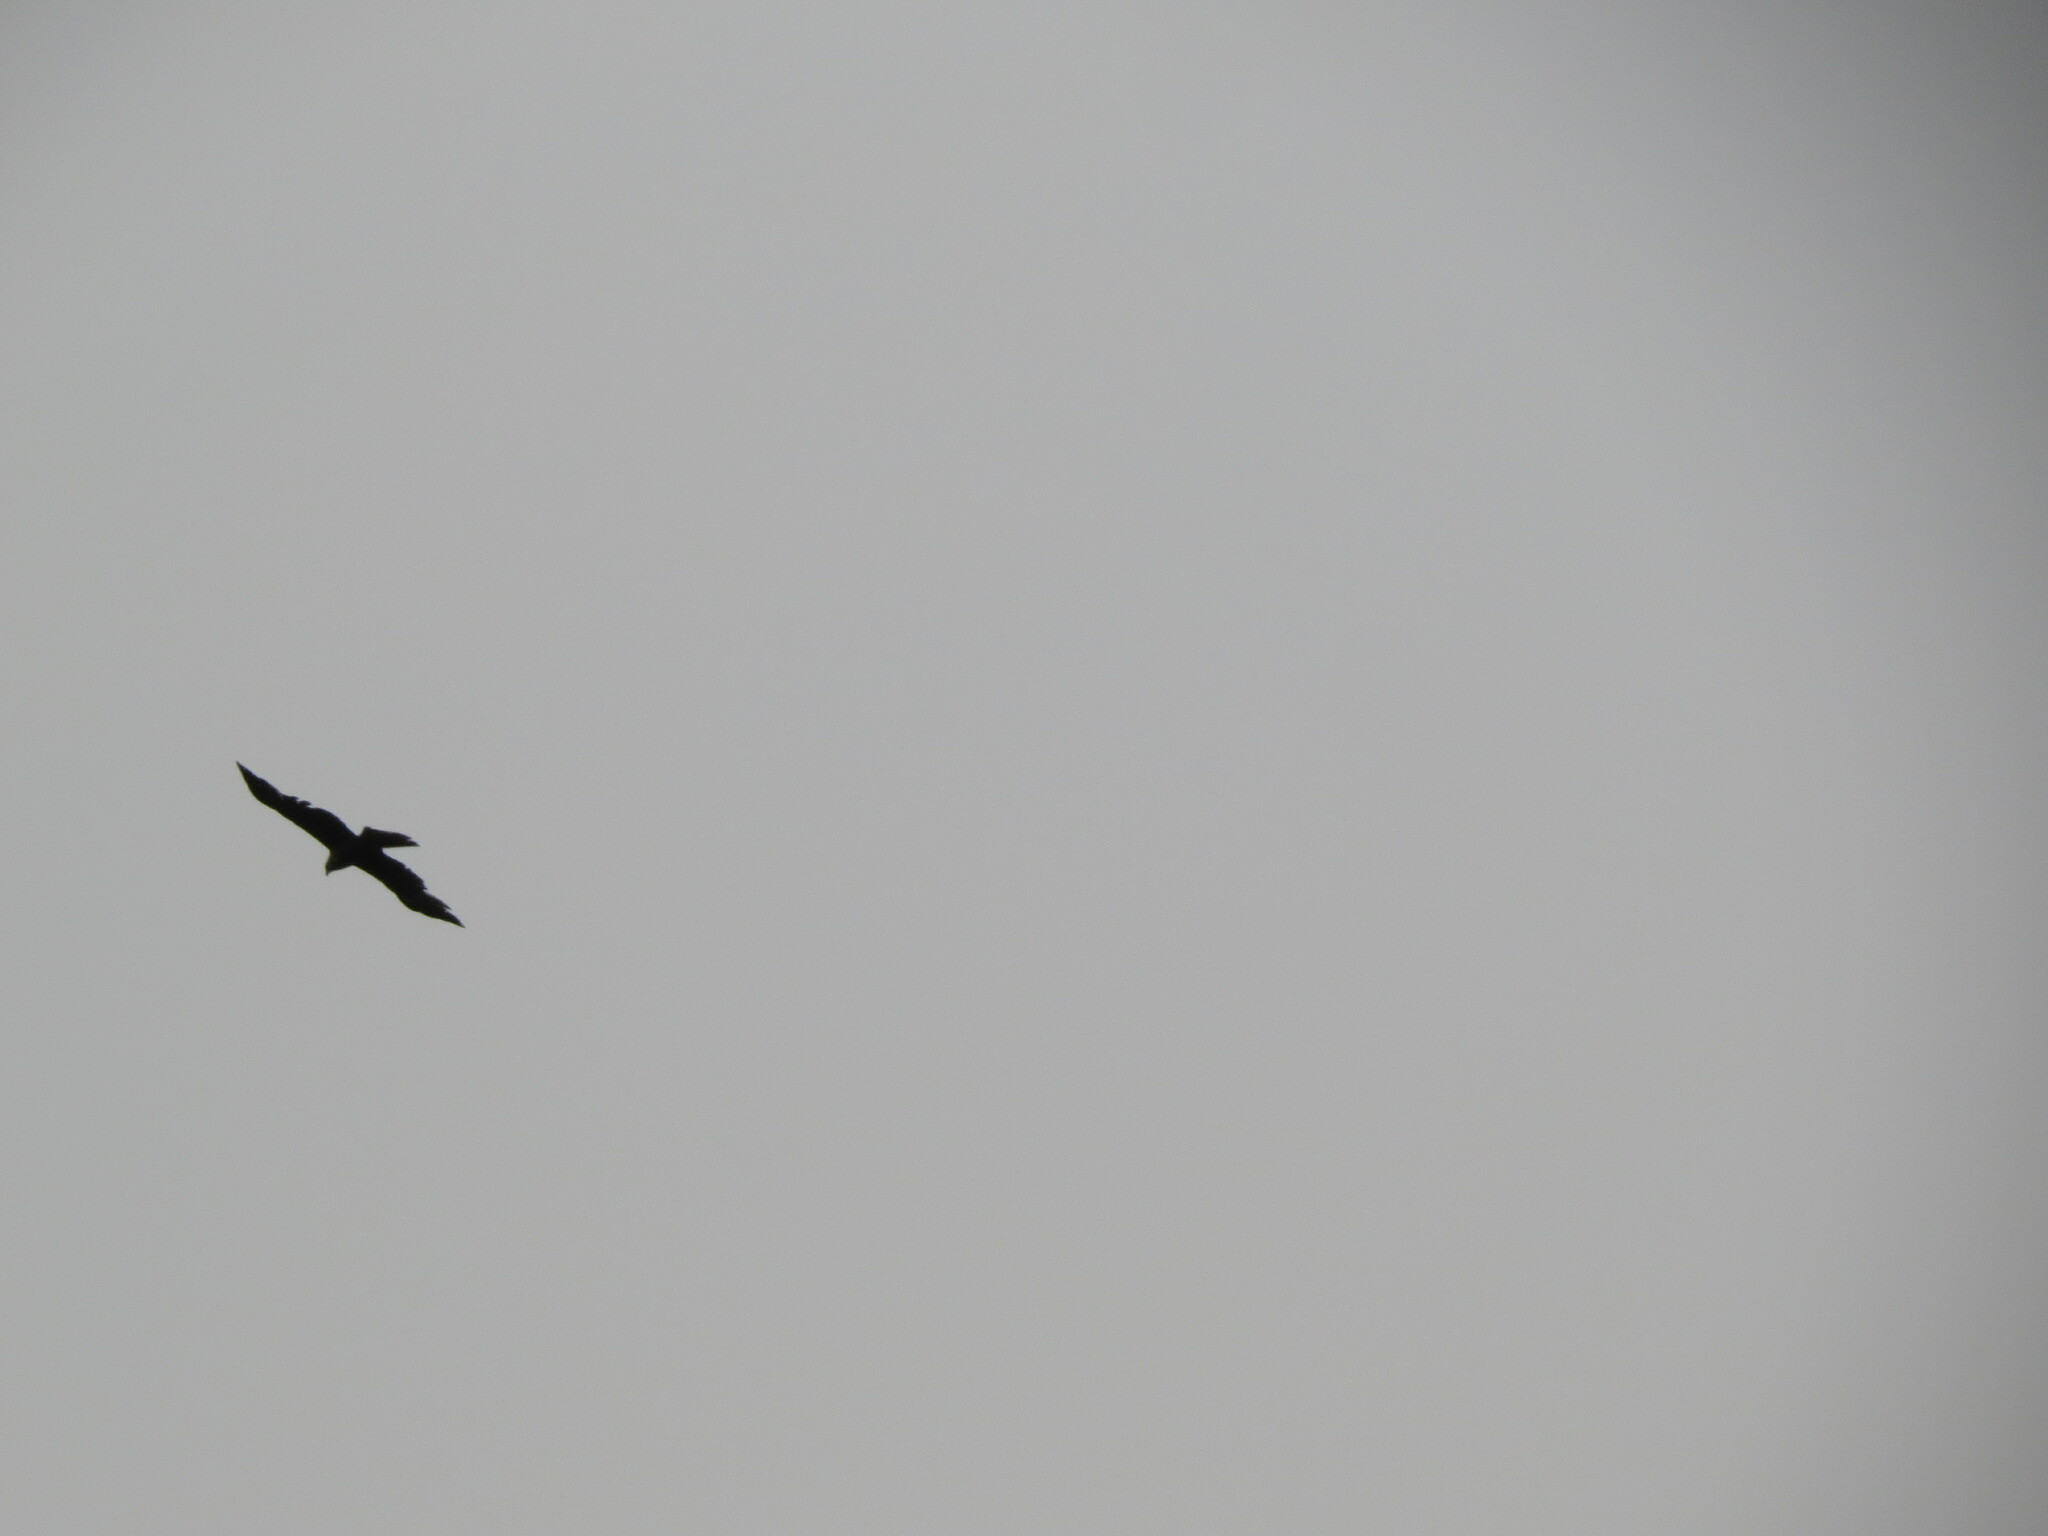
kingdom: Animalia
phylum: Chordata
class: Aves
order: Accipitriformes
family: Accipitridae
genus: Milvus
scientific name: Milvus migrans
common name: Black kite
